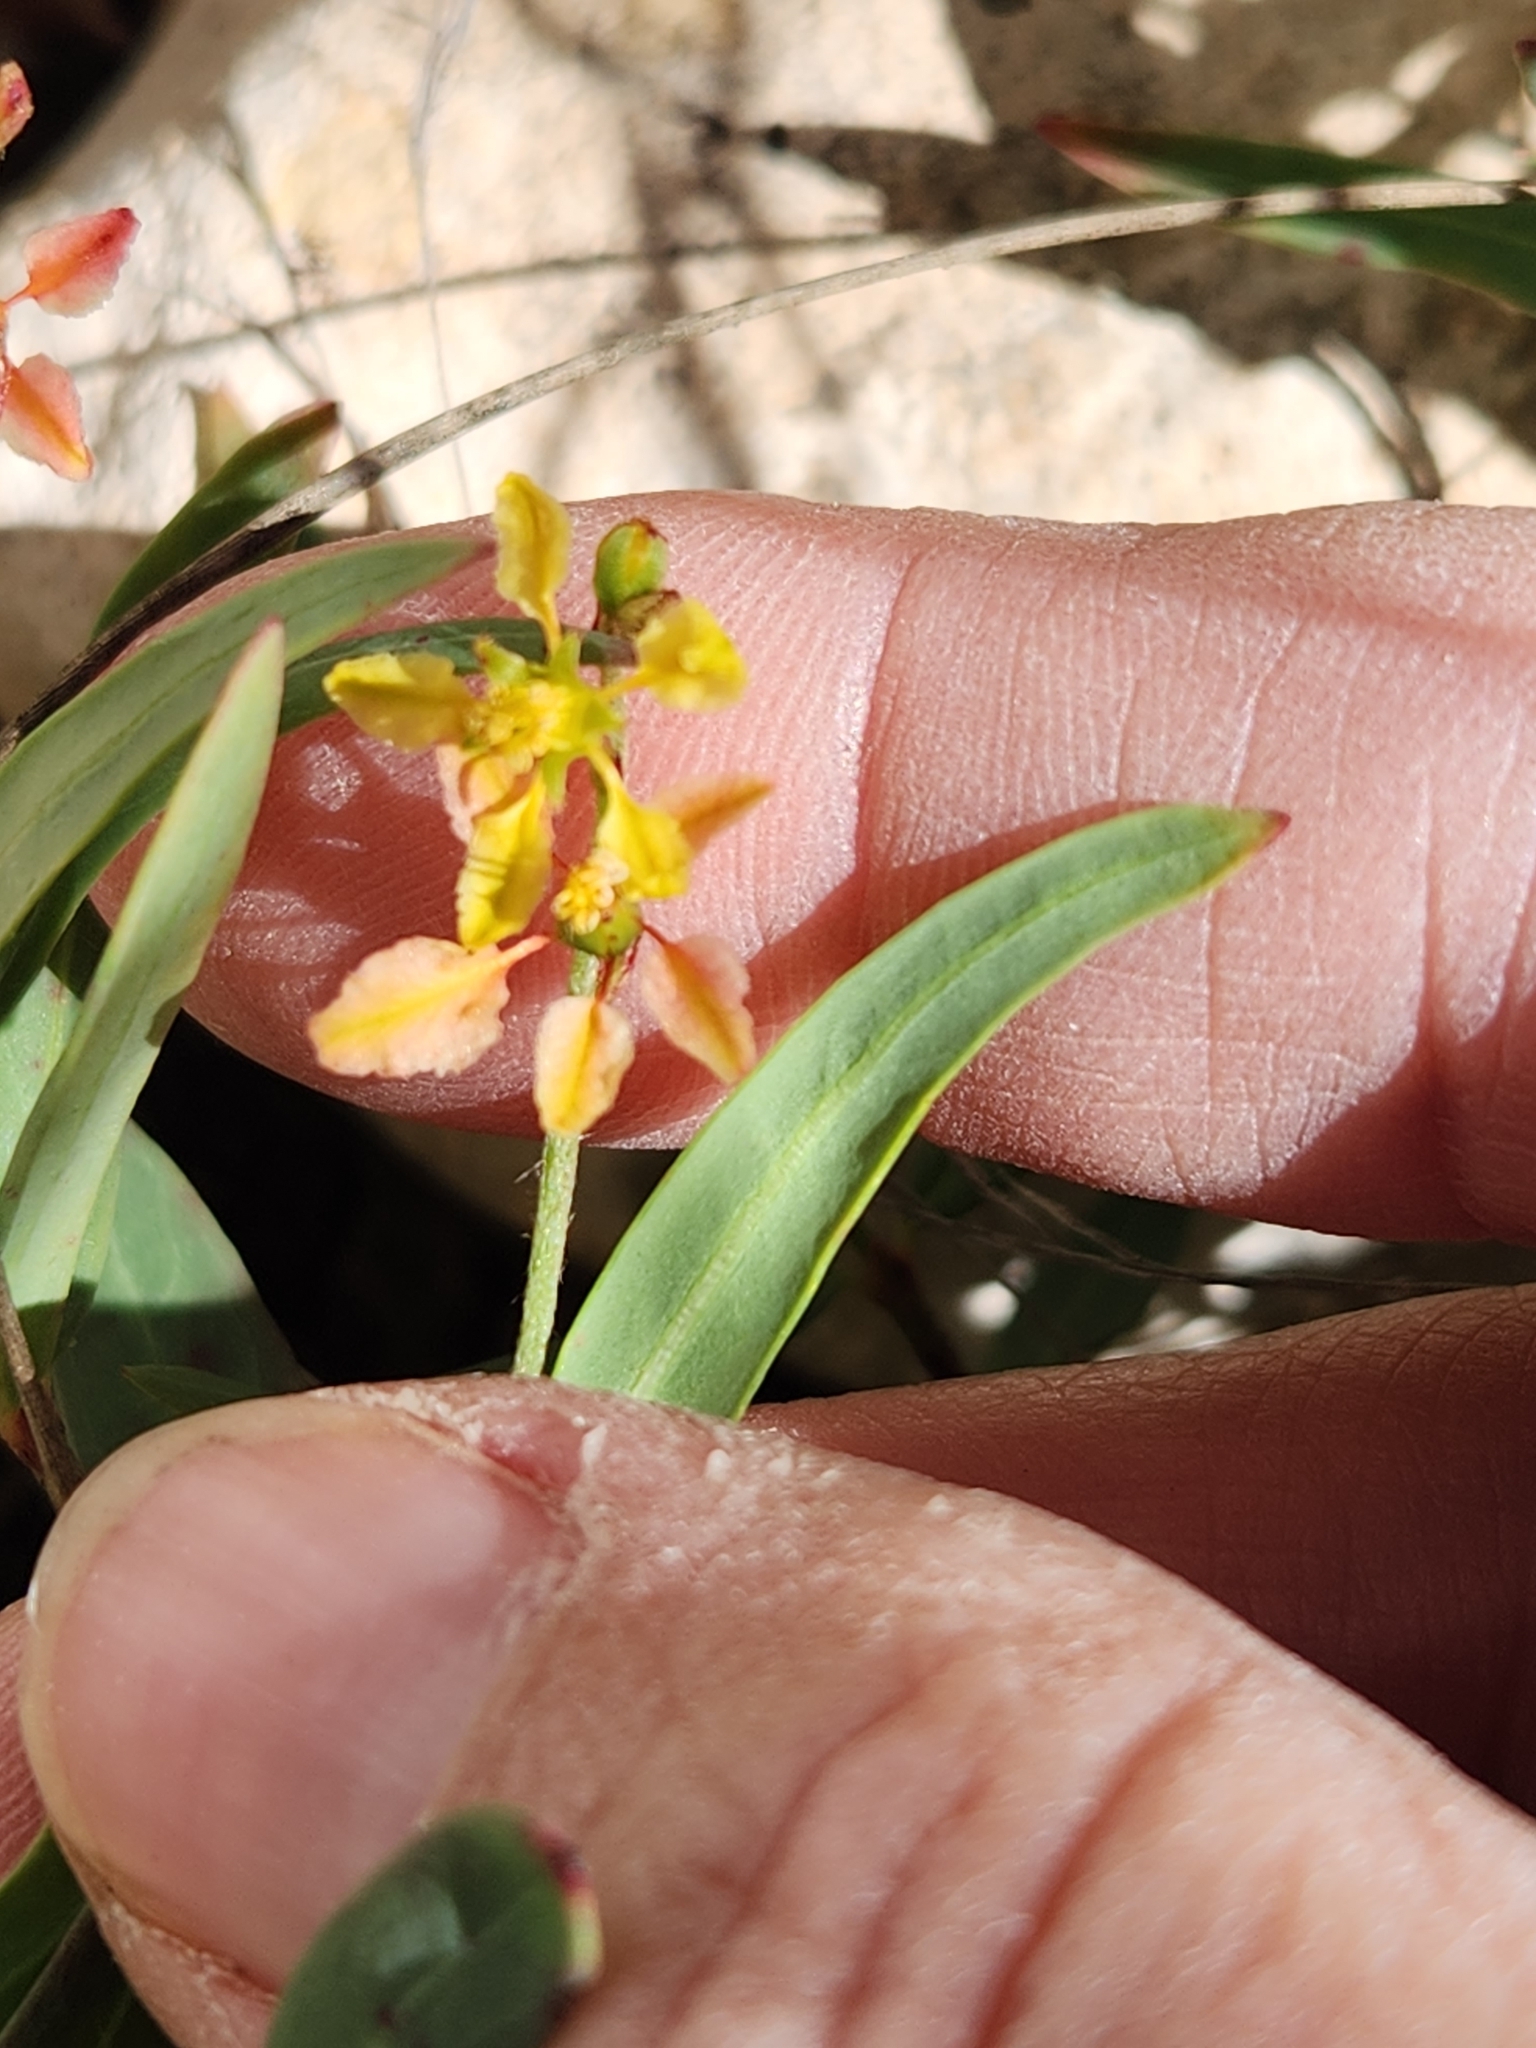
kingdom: Plantae
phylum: Tracheophyta
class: Magnoliopsida
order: Malpighiales
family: Malpighiaceae
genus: Galphimia
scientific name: Galphimia angustifolia
